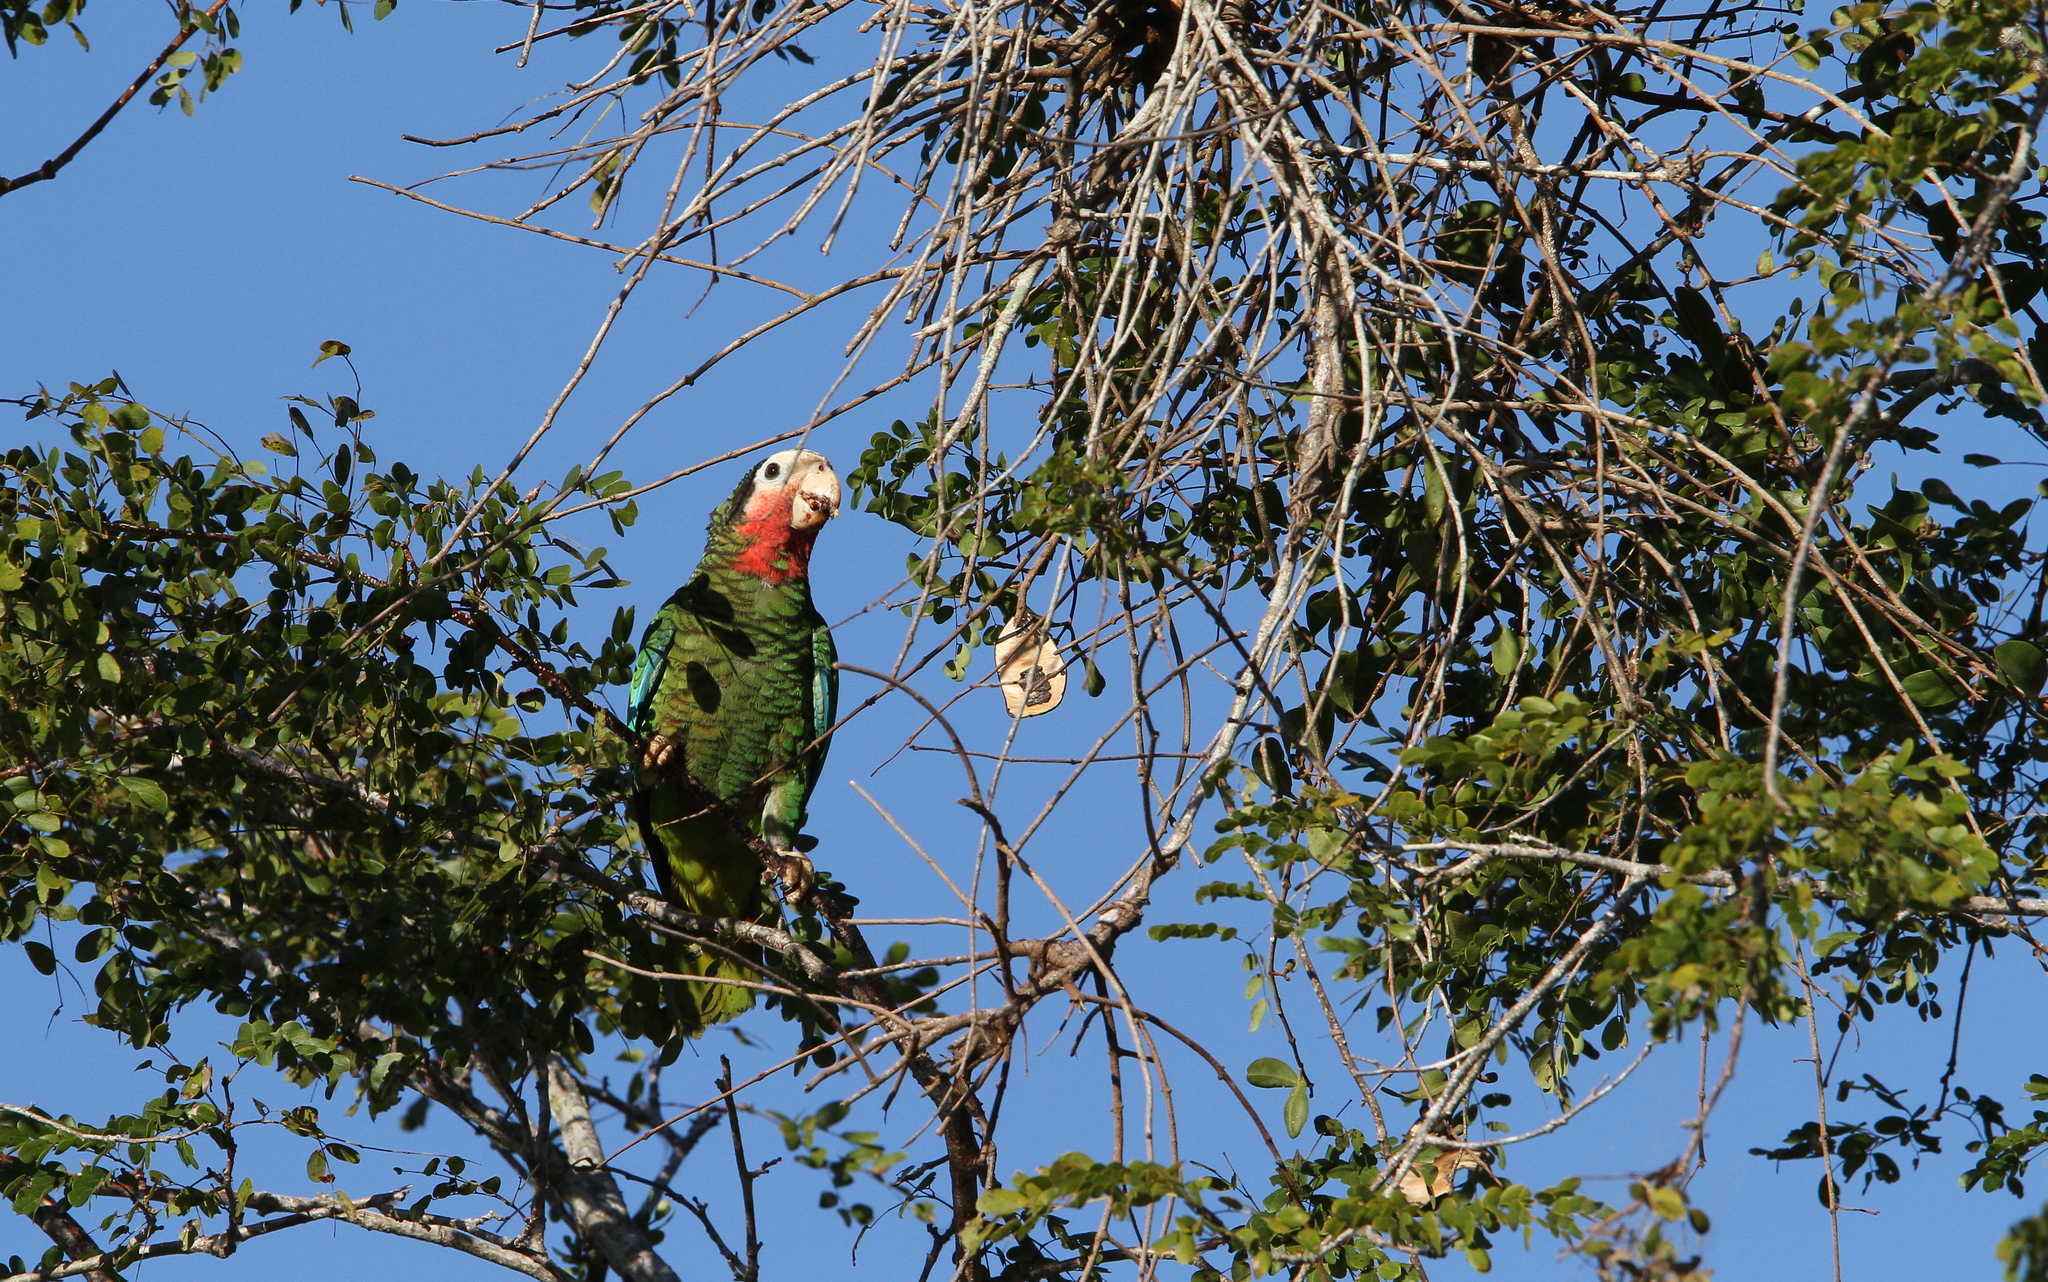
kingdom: Animalia
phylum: Chordata
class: Aves
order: Psittaciformes
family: Psittacidae
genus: Amazona
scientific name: Amazona leucocephala
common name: Cuban amazon
